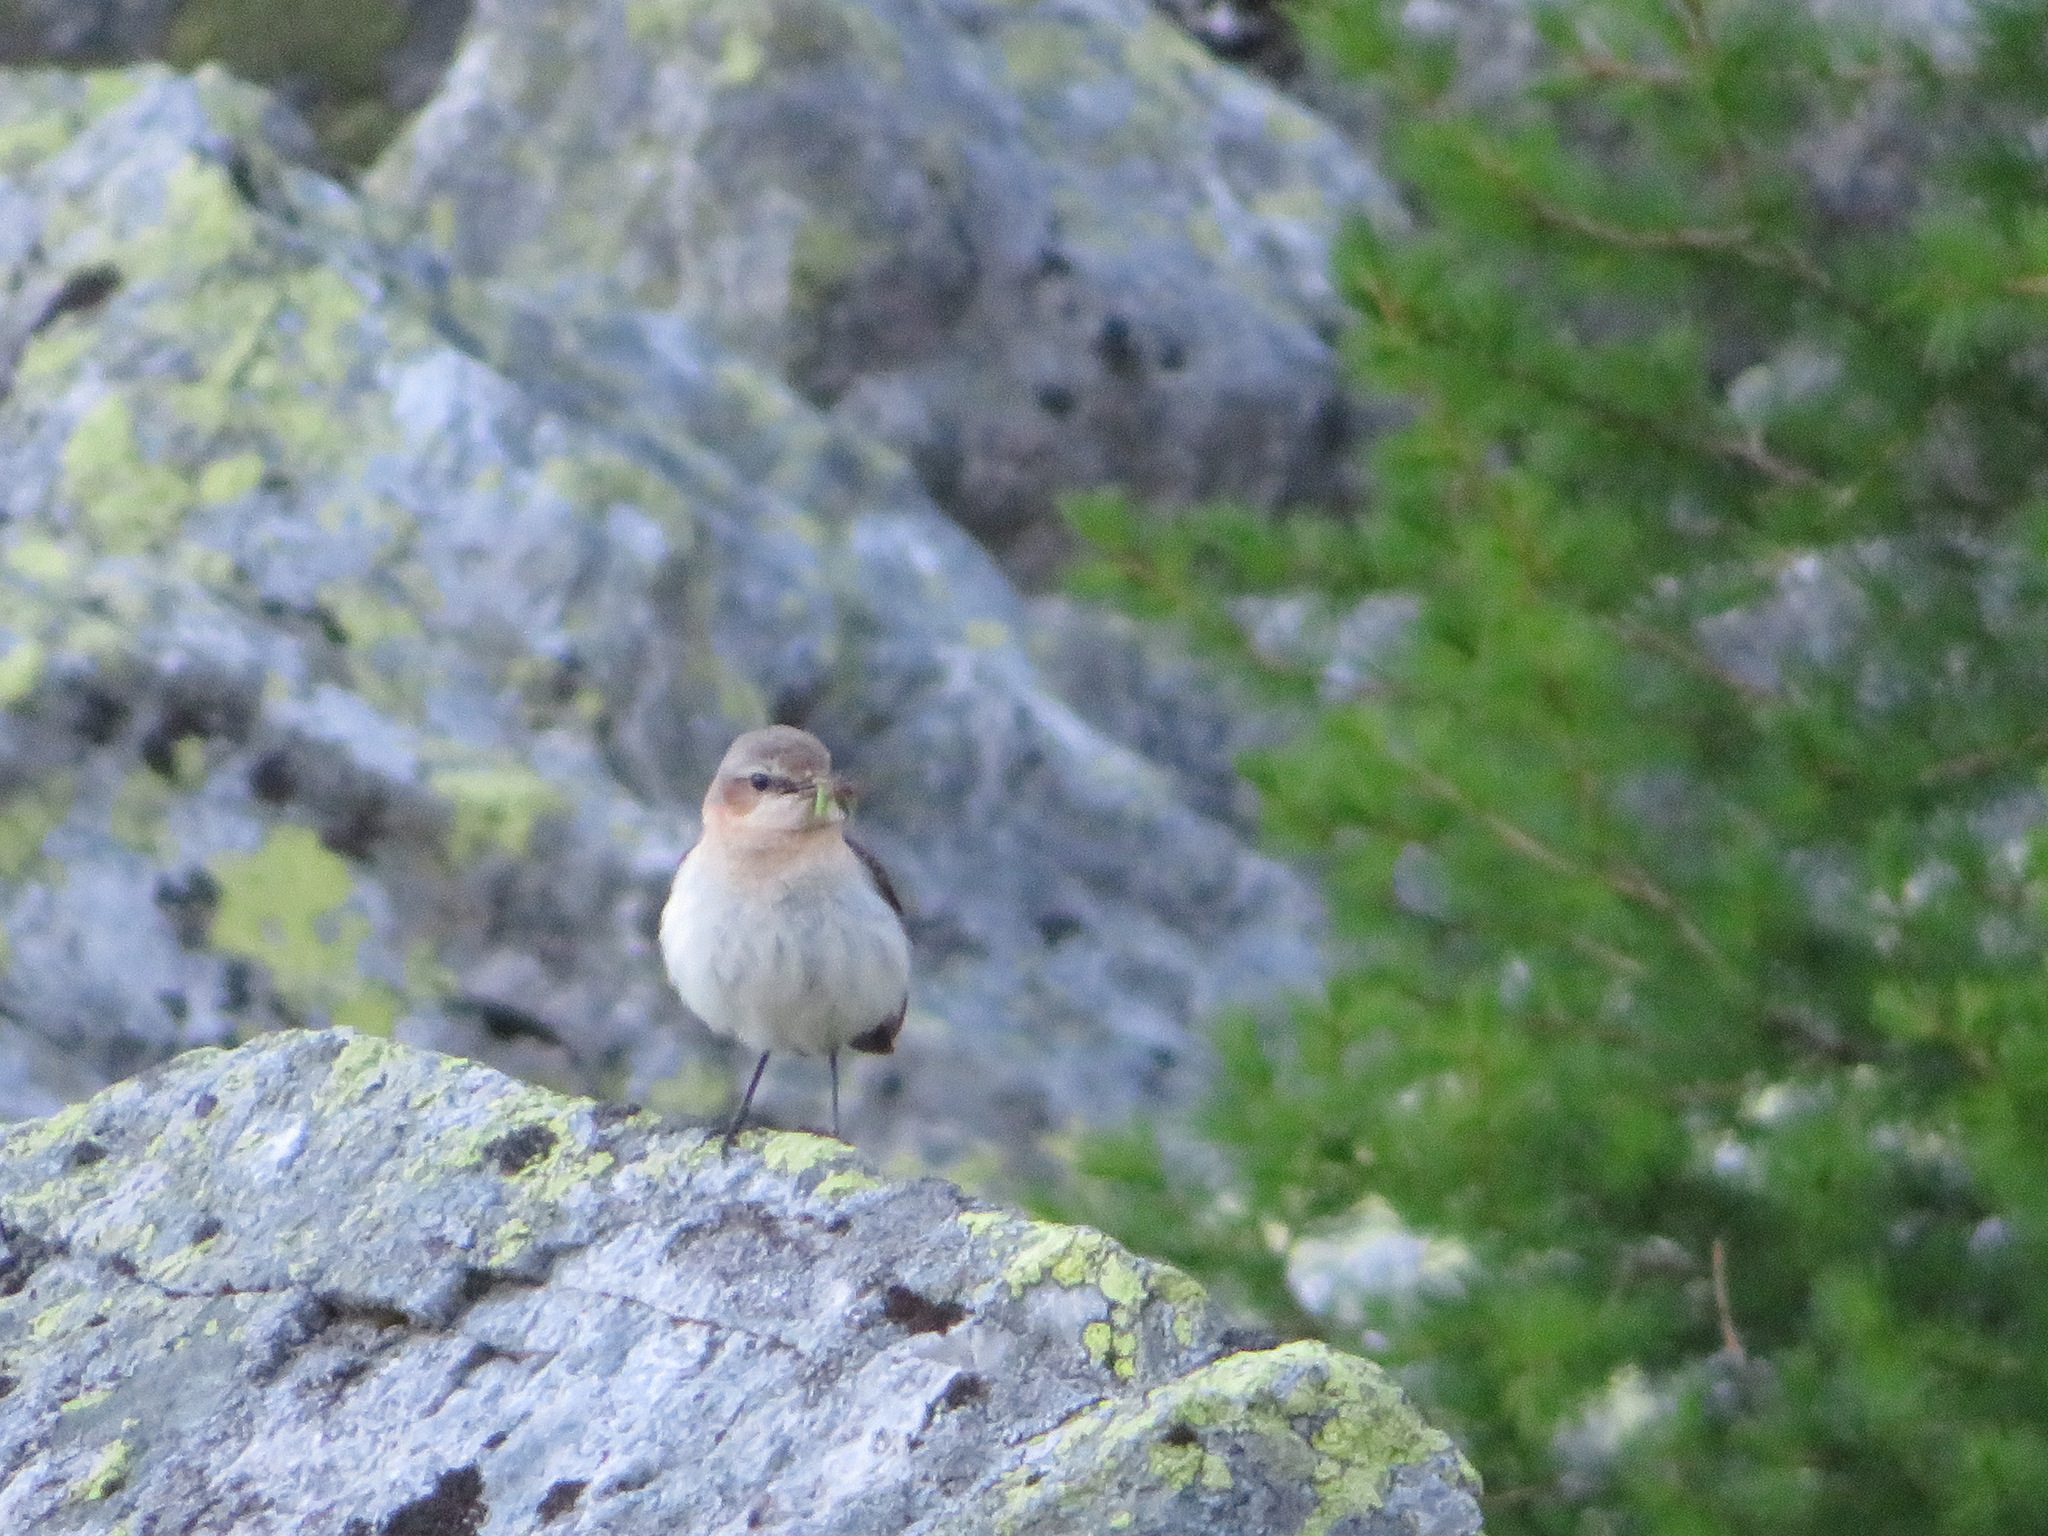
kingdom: Animalia
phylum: Chordata
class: Aves
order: Passeriformes
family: Muscicapidae
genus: Oenanthe
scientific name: Oenanthe oenanthe
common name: Northern wheatear
